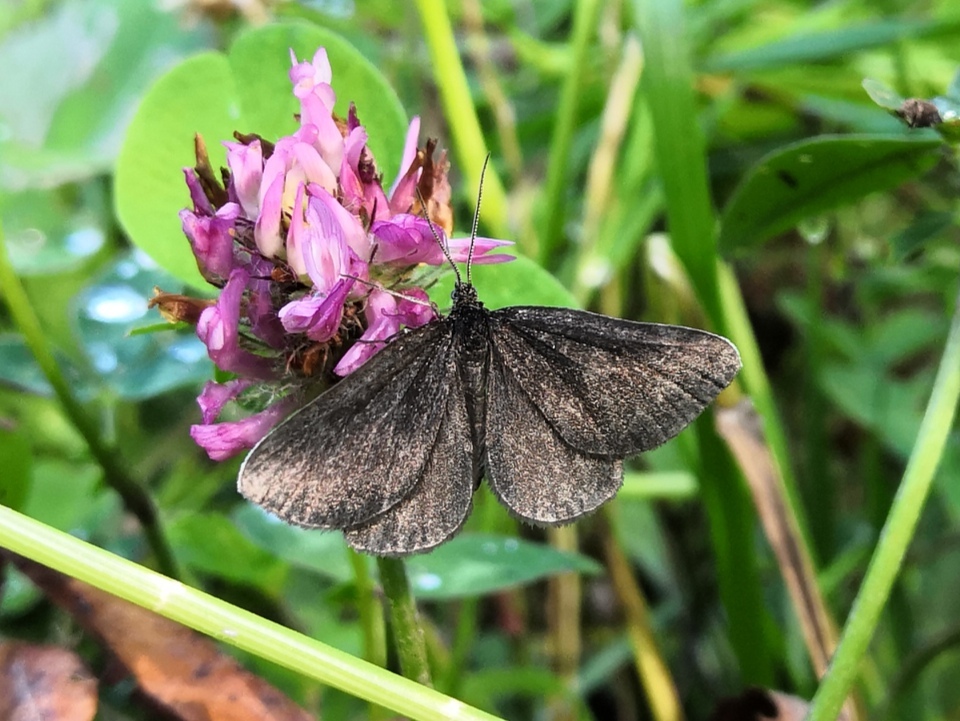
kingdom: Animalia
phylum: Arthropoda
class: Insecta
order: Lepidoptera
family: Geometridae
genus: Odezia
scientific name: Odezia atrata
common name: Chimney sweeper
